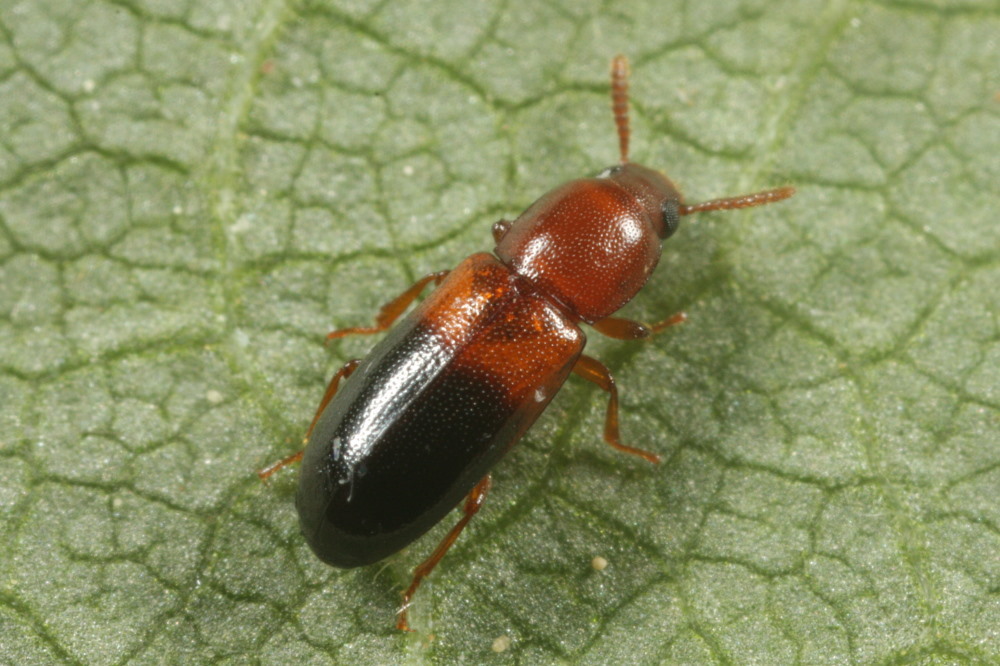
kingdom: Animalia
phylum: Arthropoda
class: Insecta
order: Coleoptera
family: Tenebrionidae
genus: Corticeus
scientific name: Corticeus bicolor
